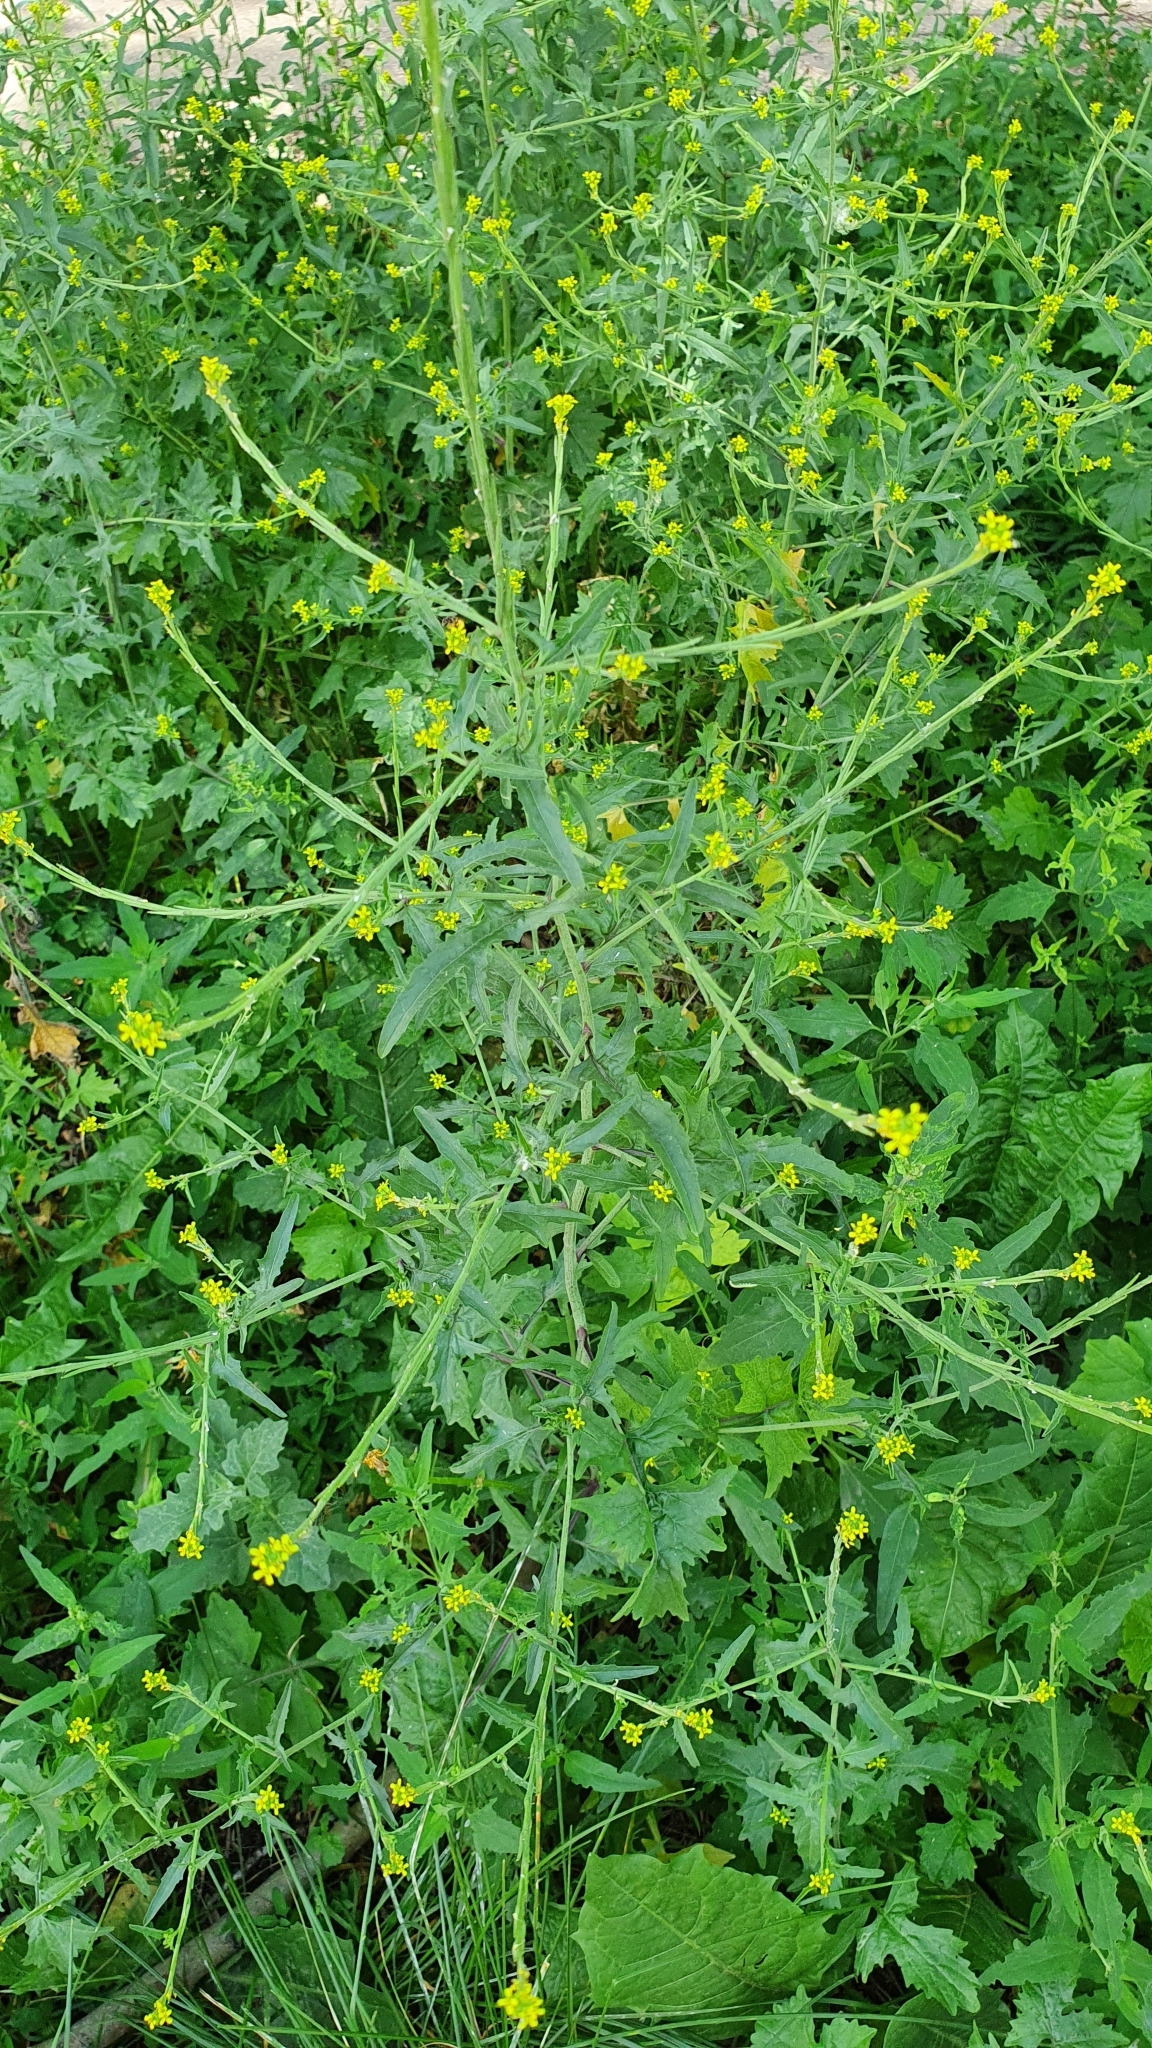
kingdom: Plantae
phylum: Tracheophyta
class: Magnoliopsida
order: Brassicales
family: Brassicaceae
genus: Sisymbrium
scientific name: Sisymbrium officinale
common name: Hedge mustard
